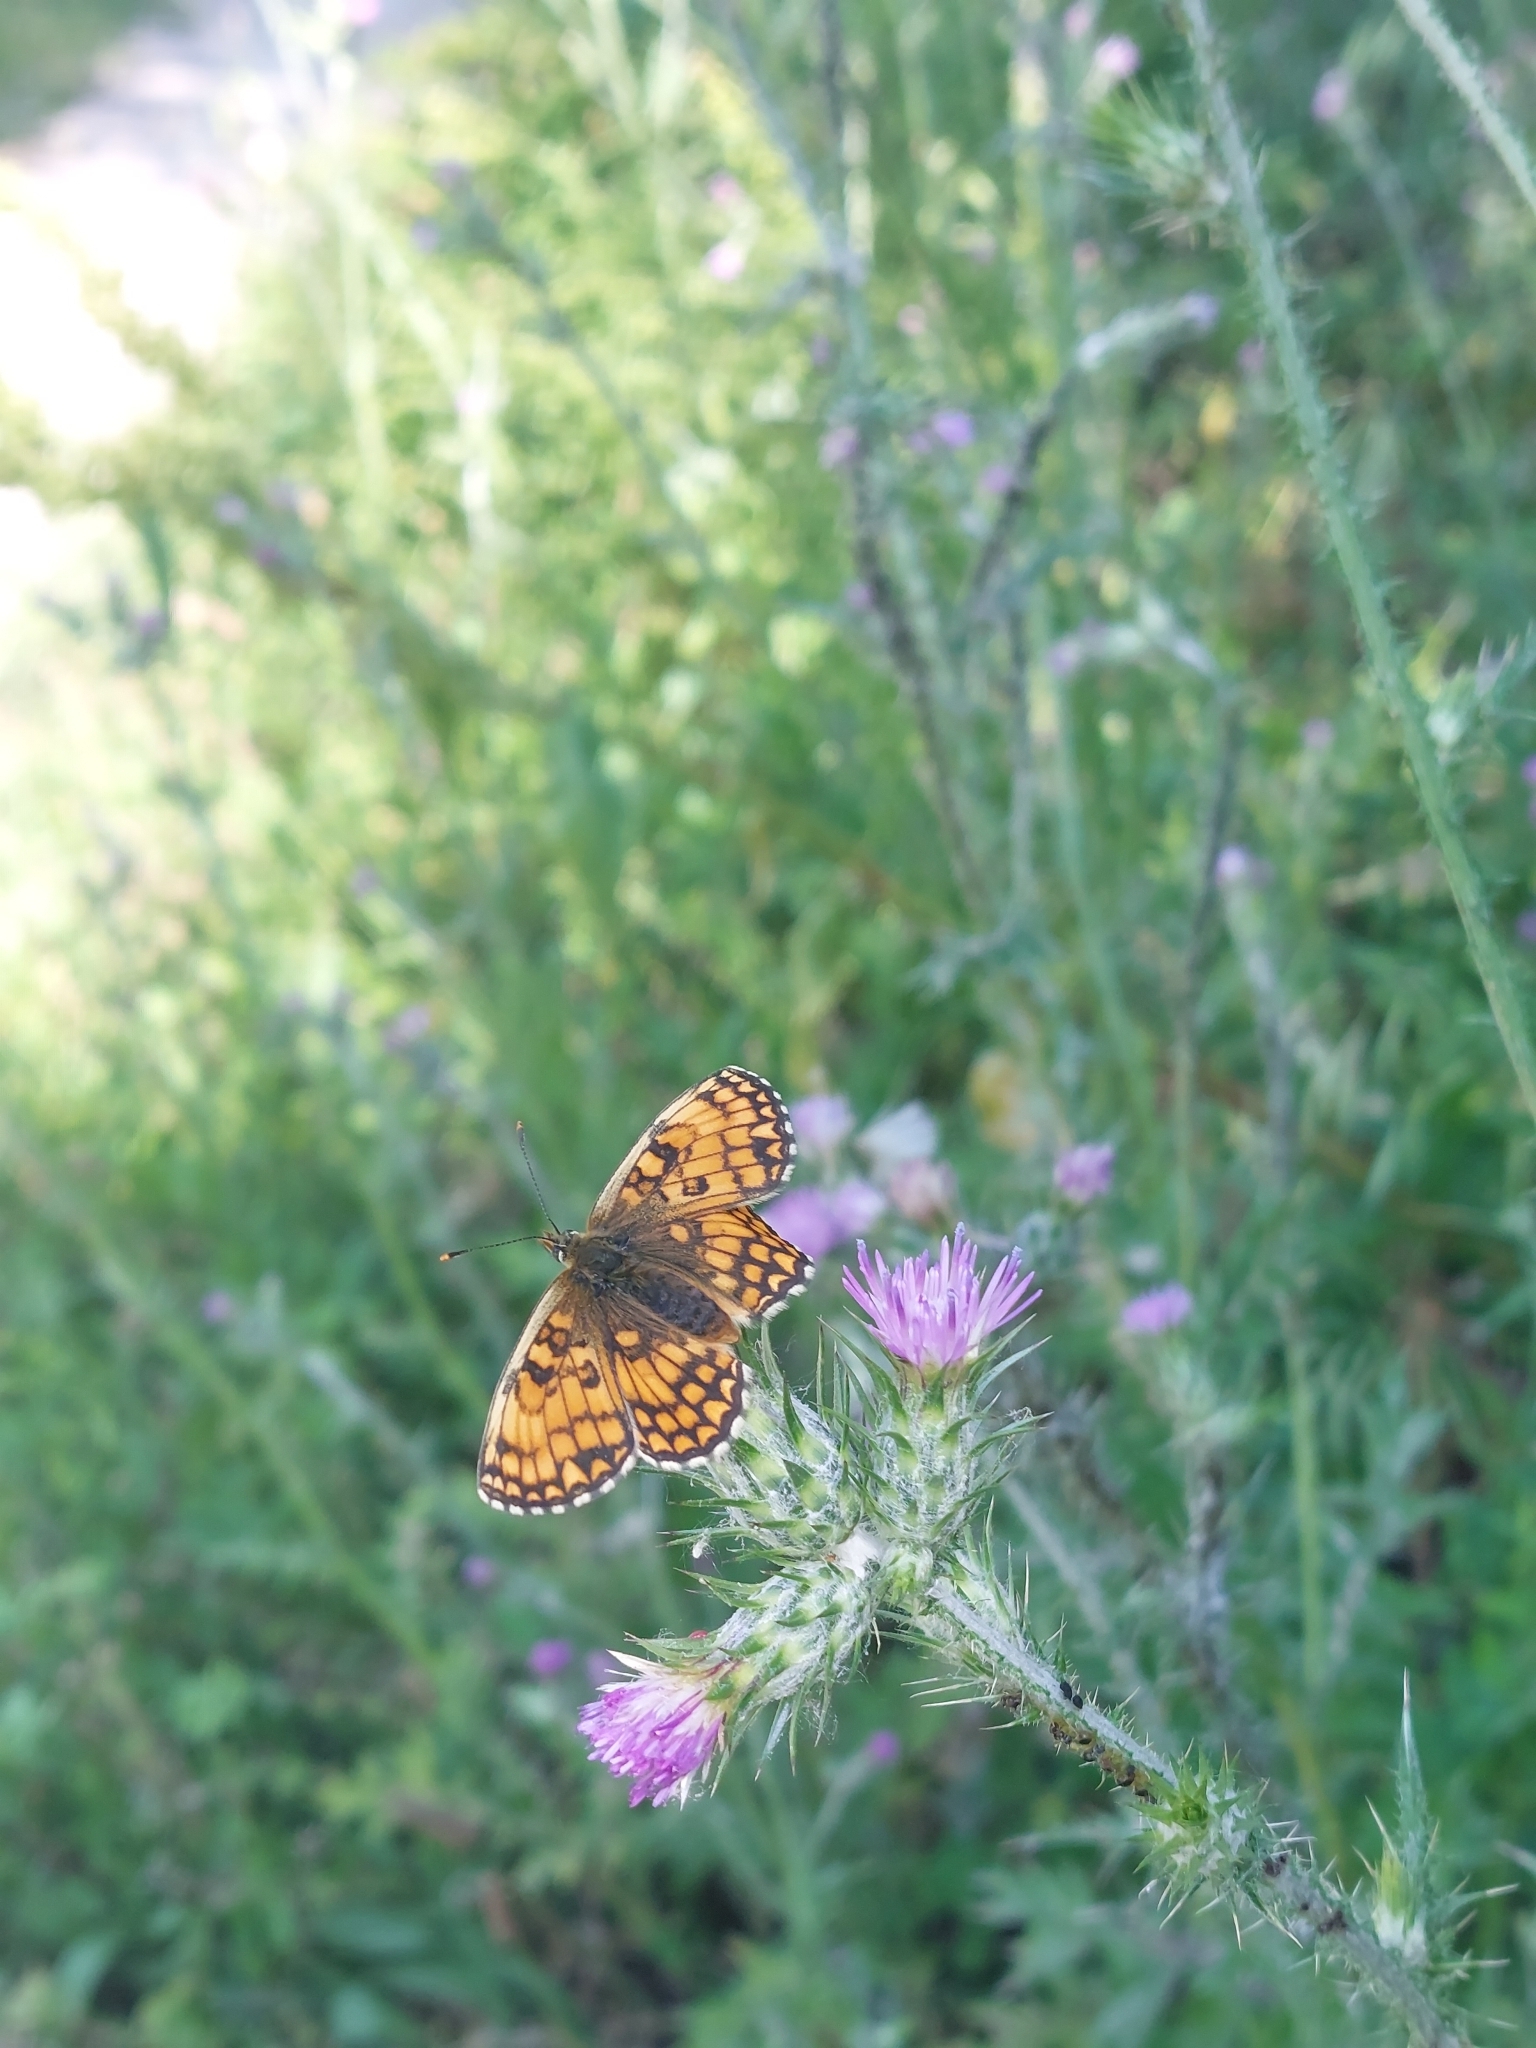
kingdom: Animalia
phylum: Arthropoda
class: Insecta
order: Lepidoptera
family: Nymphalidae
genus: Melitaea
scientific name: Melitaea phoebe
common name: Knapweed fritillary
